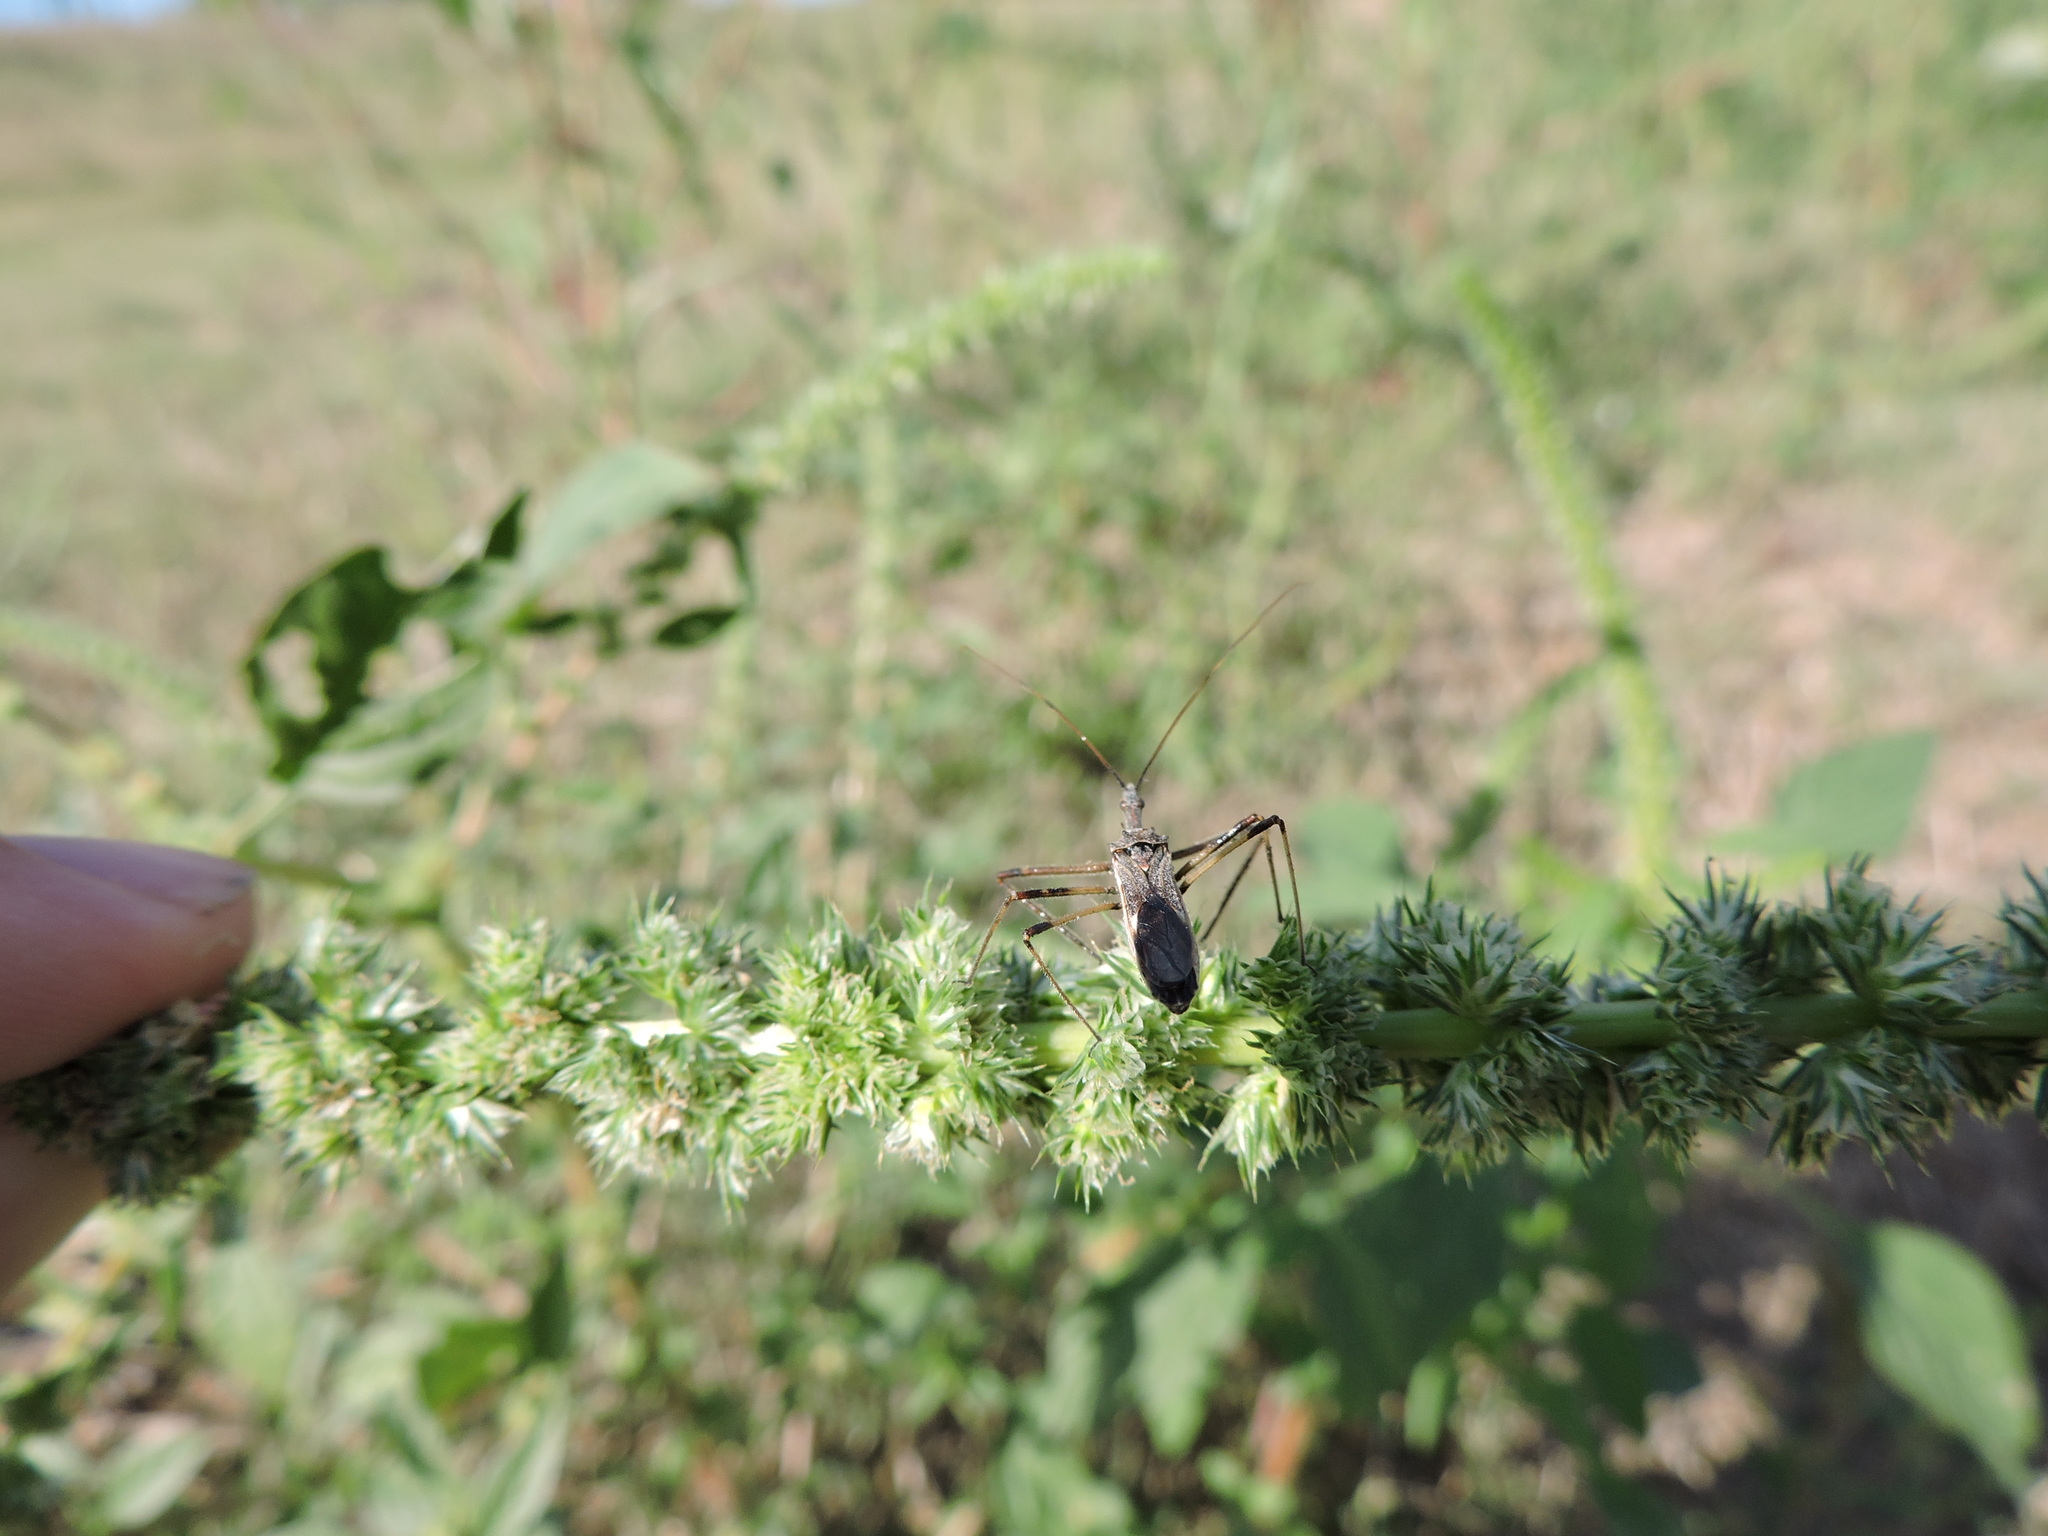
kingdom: Animalia
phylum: Arthropoda
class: Insecta
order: Hemiptera
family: Reduviidae
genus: Zelus
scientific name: Zelus tetracanthus
